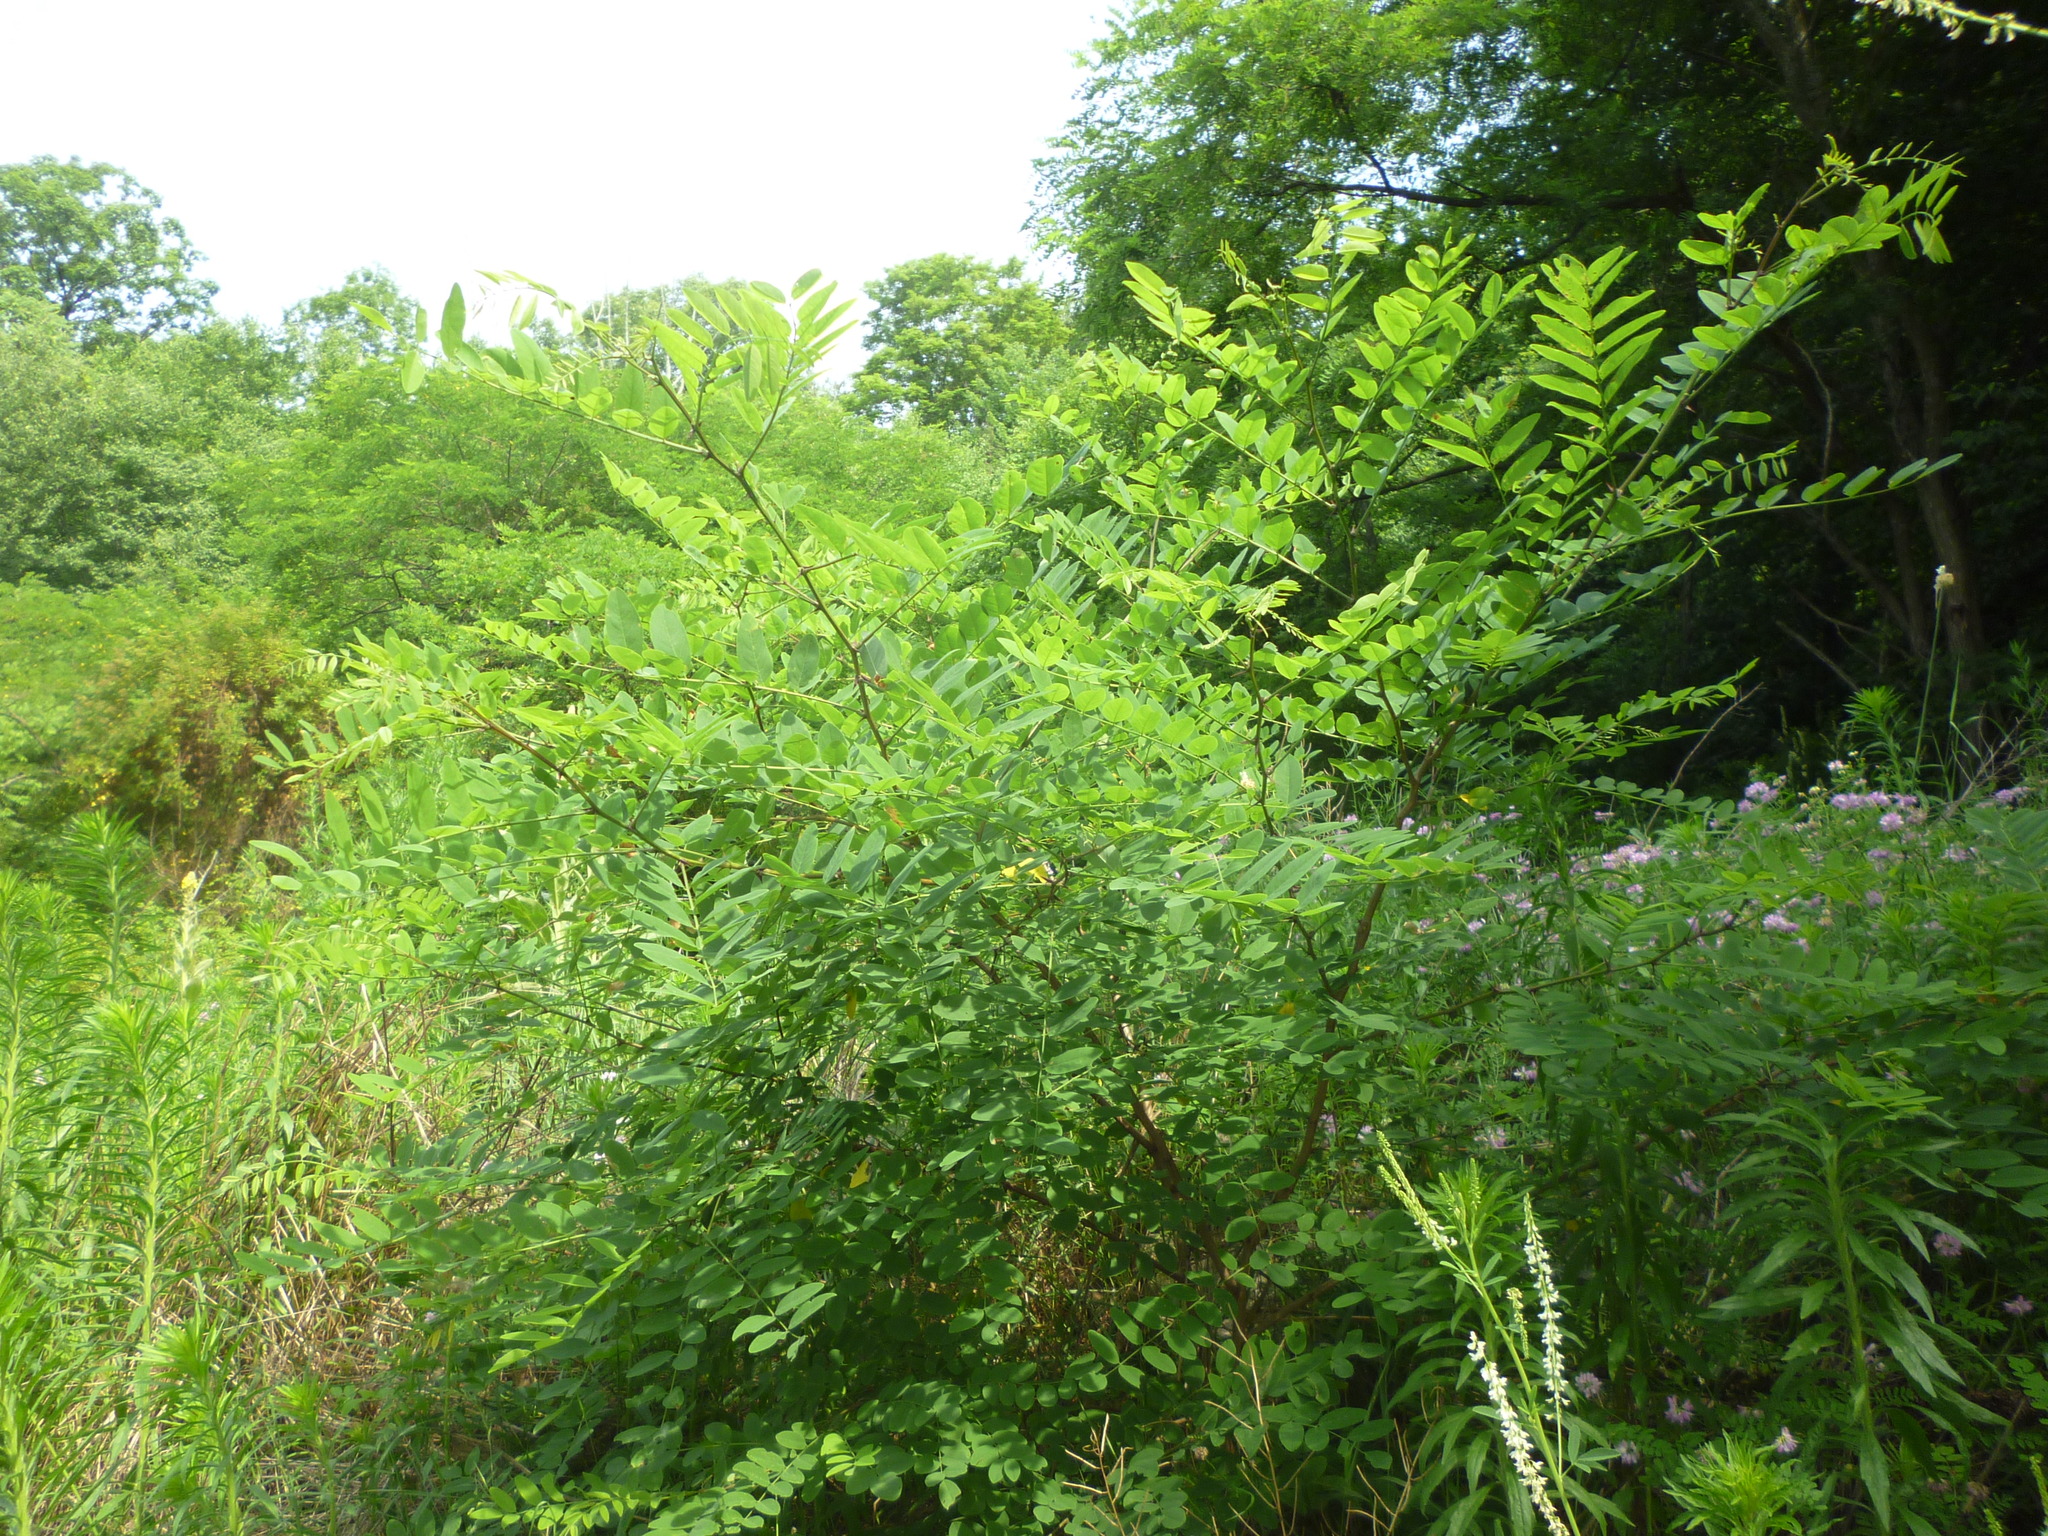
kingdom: Plantae
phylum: Tracheophyta
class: Magnoliopsida
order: Fabales
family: Fabaceae
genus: Robinia
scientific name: Robinia pseudoacacia
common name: Black locust
